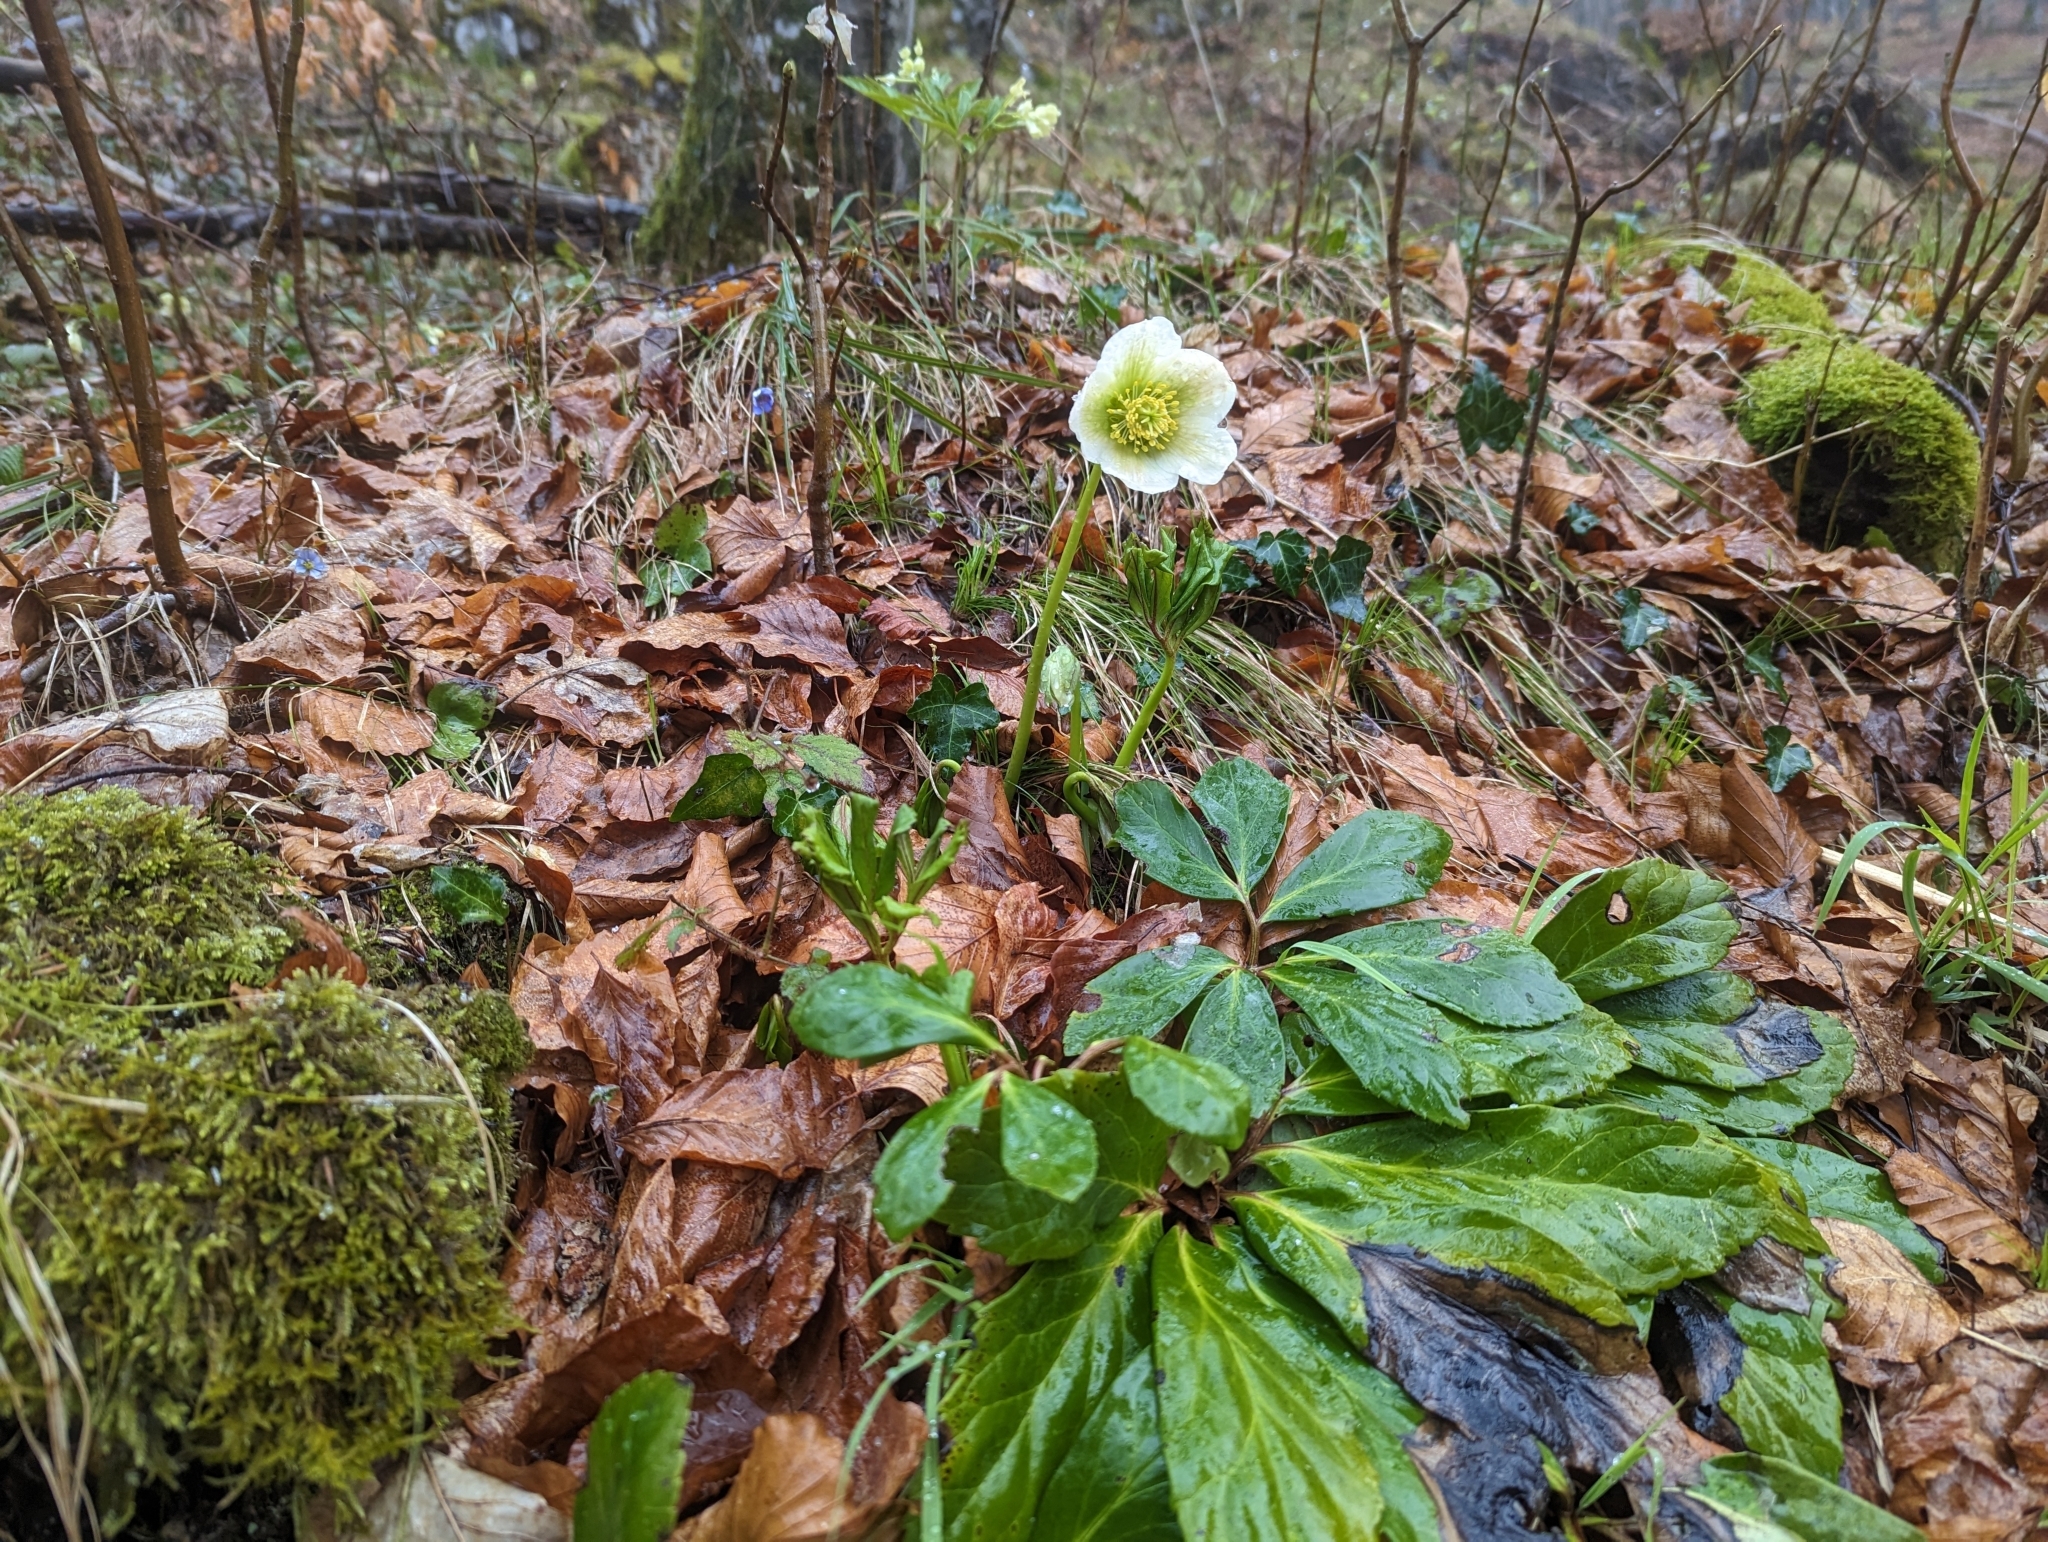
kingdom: Plantae
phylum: Tracheophyta
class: Magnoliopsida
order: Ranunculales
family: Ranunculaceae
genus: Helleborus
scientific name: Helleborus niger
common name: Black hellebore
